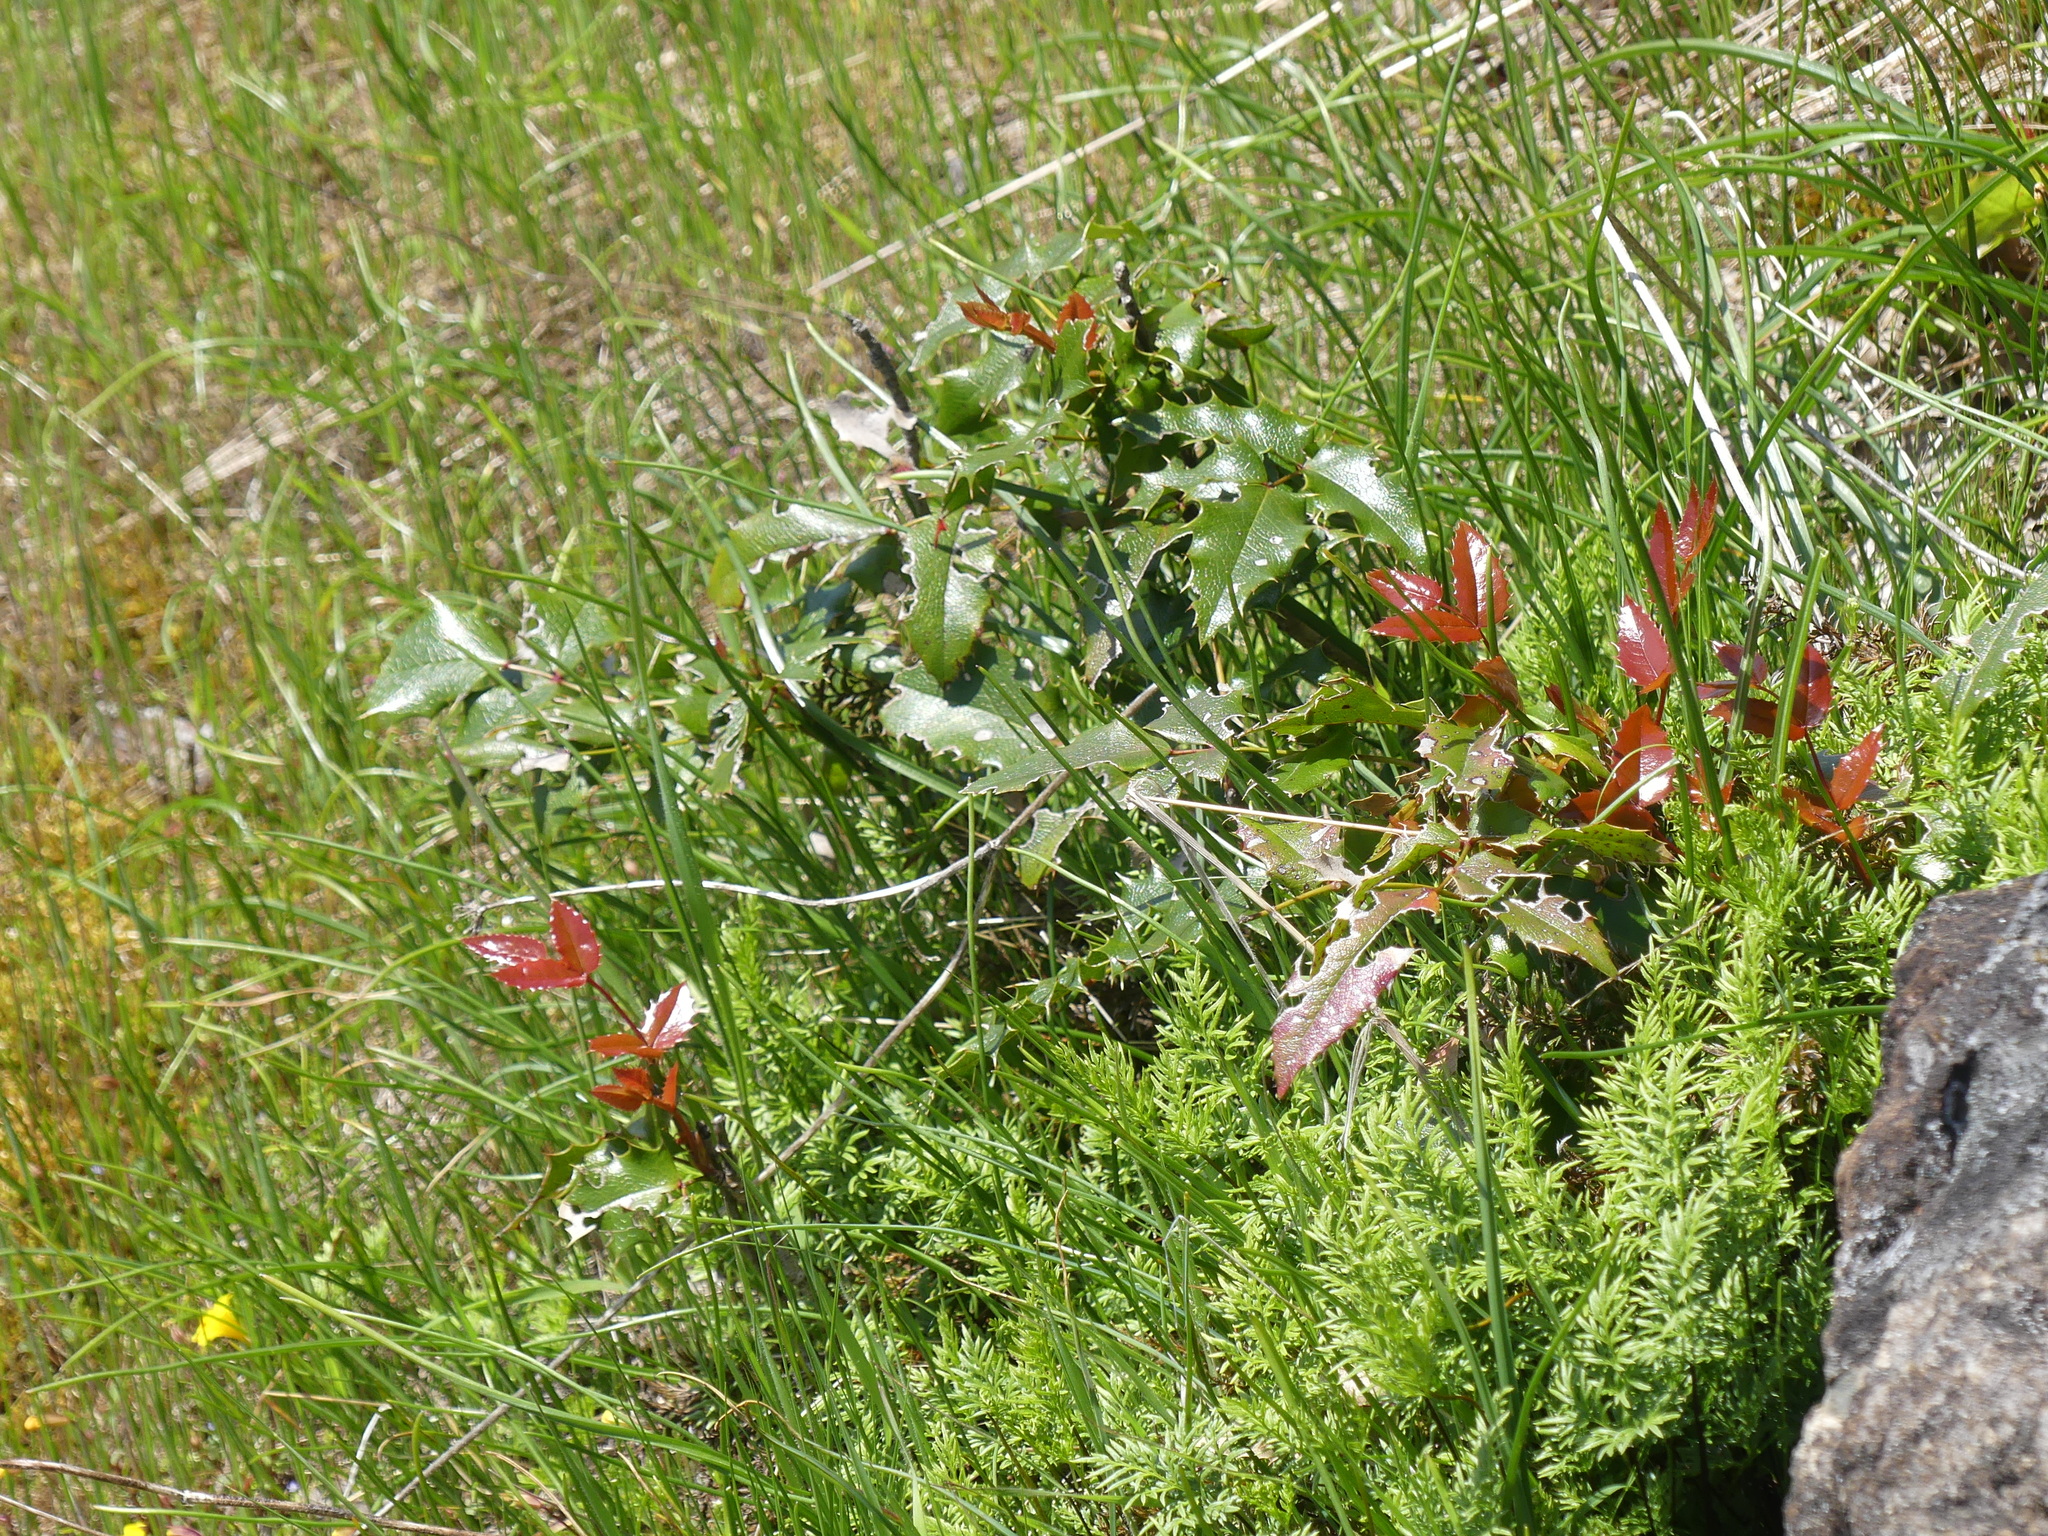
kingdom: Plantae
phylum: Tracheophyta
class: Magnoliopsida
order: Ranunculales
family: Berberidaceae
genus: Mahonia
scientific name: Mahonia aquifolium
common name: Oregon-grape
